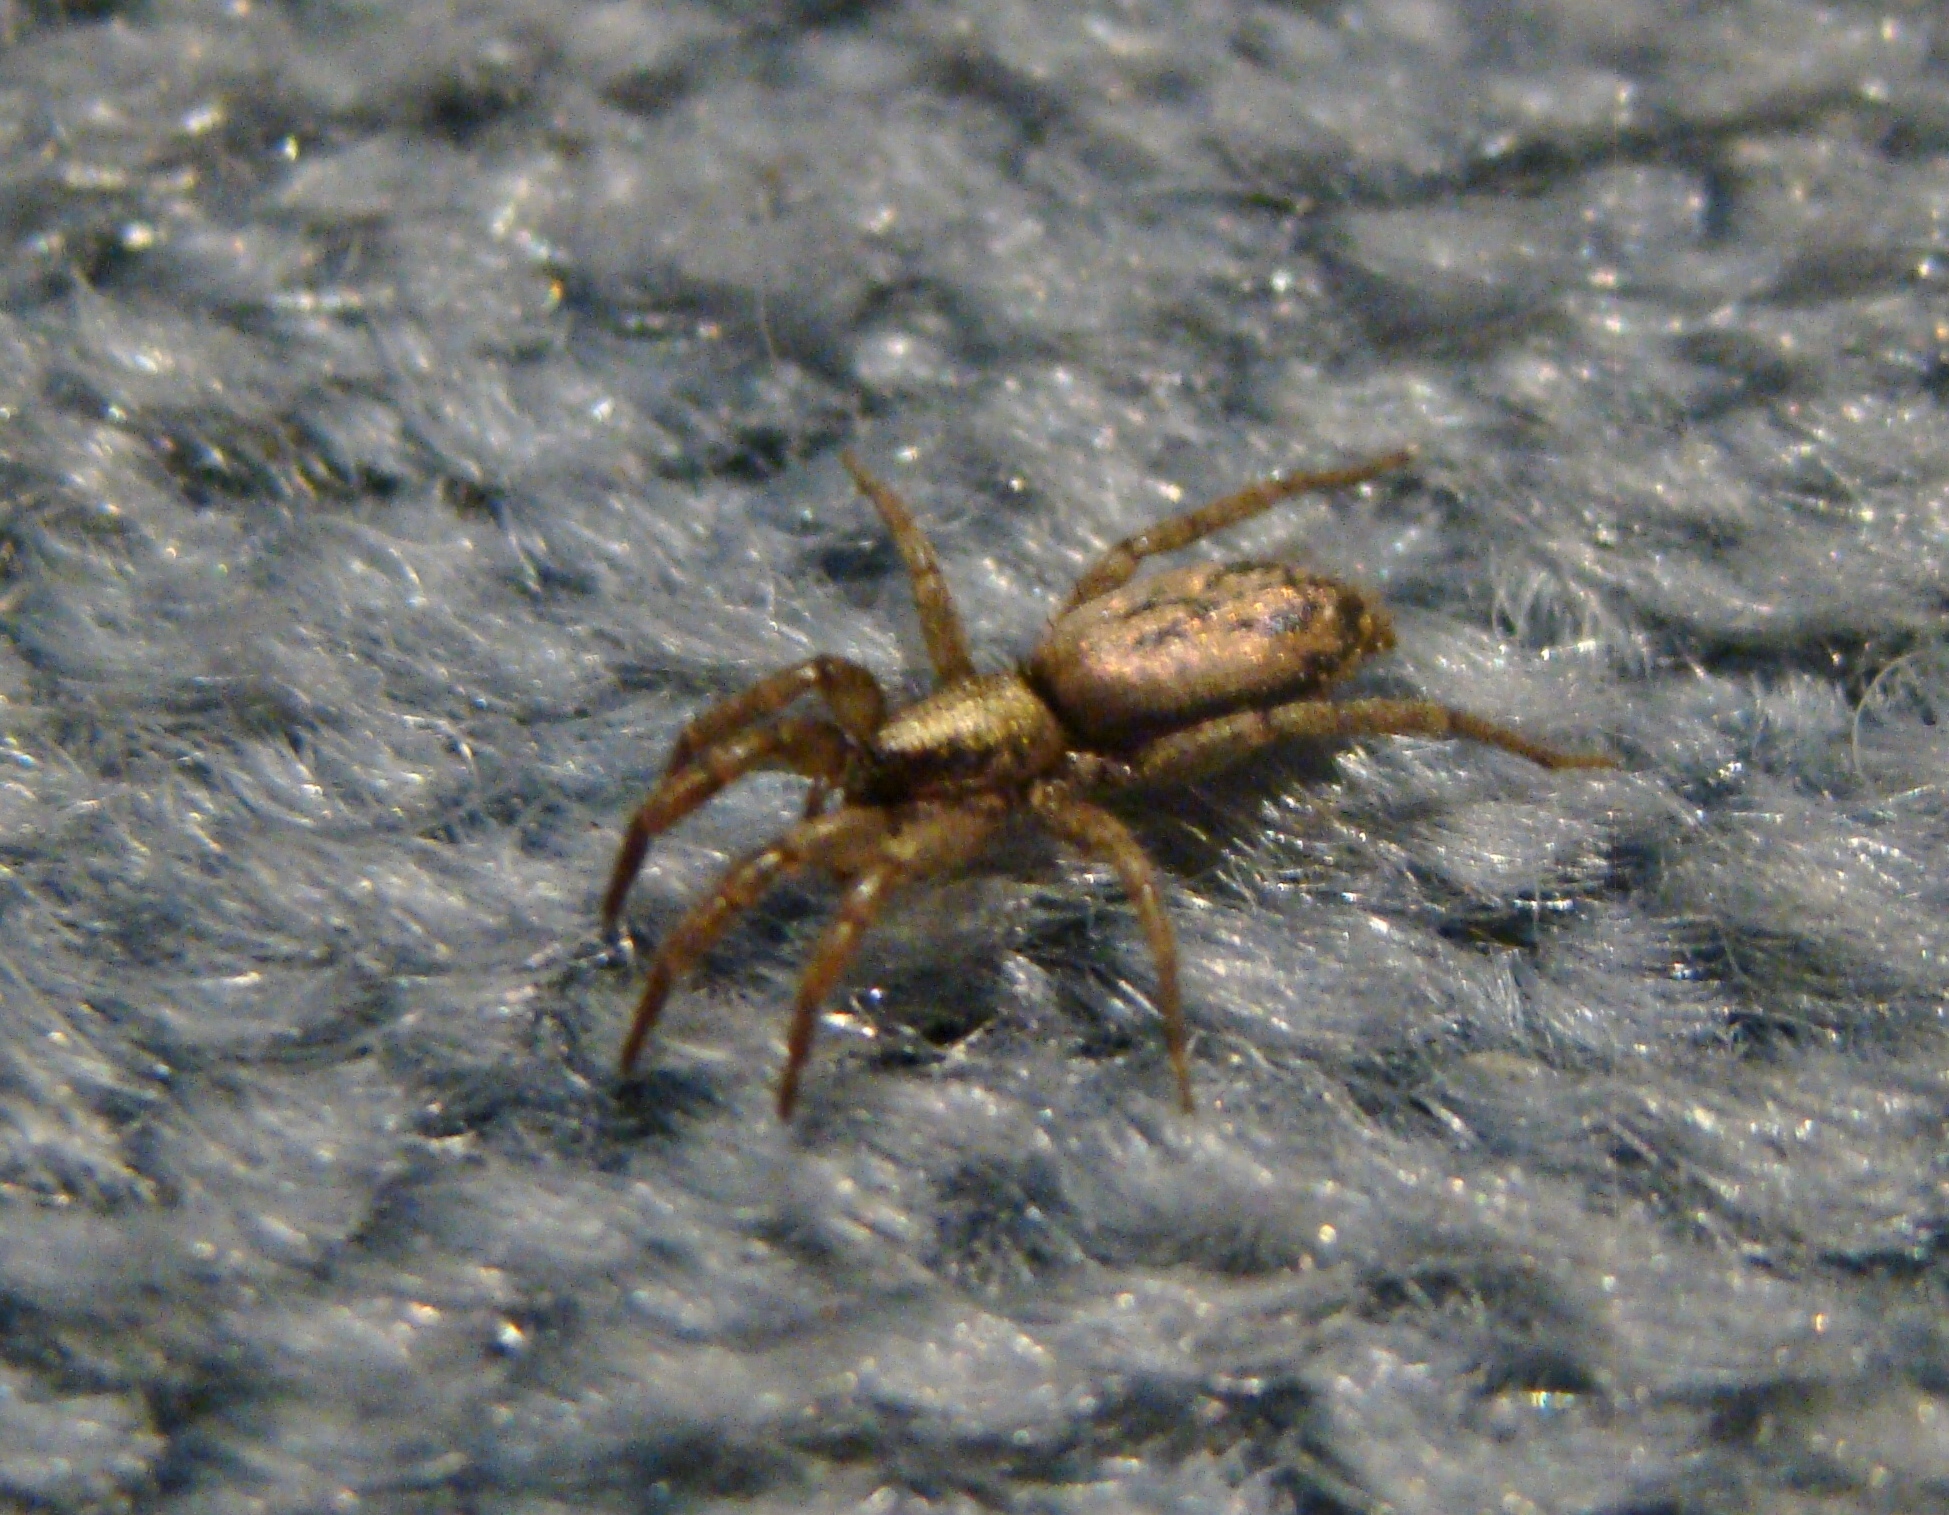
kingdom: Animalia
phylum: Arthropoda
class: Arachnida
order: Araneae
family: Gnaphosidae
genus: Scotophaeus
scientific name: Scotophaeus pretiosus
